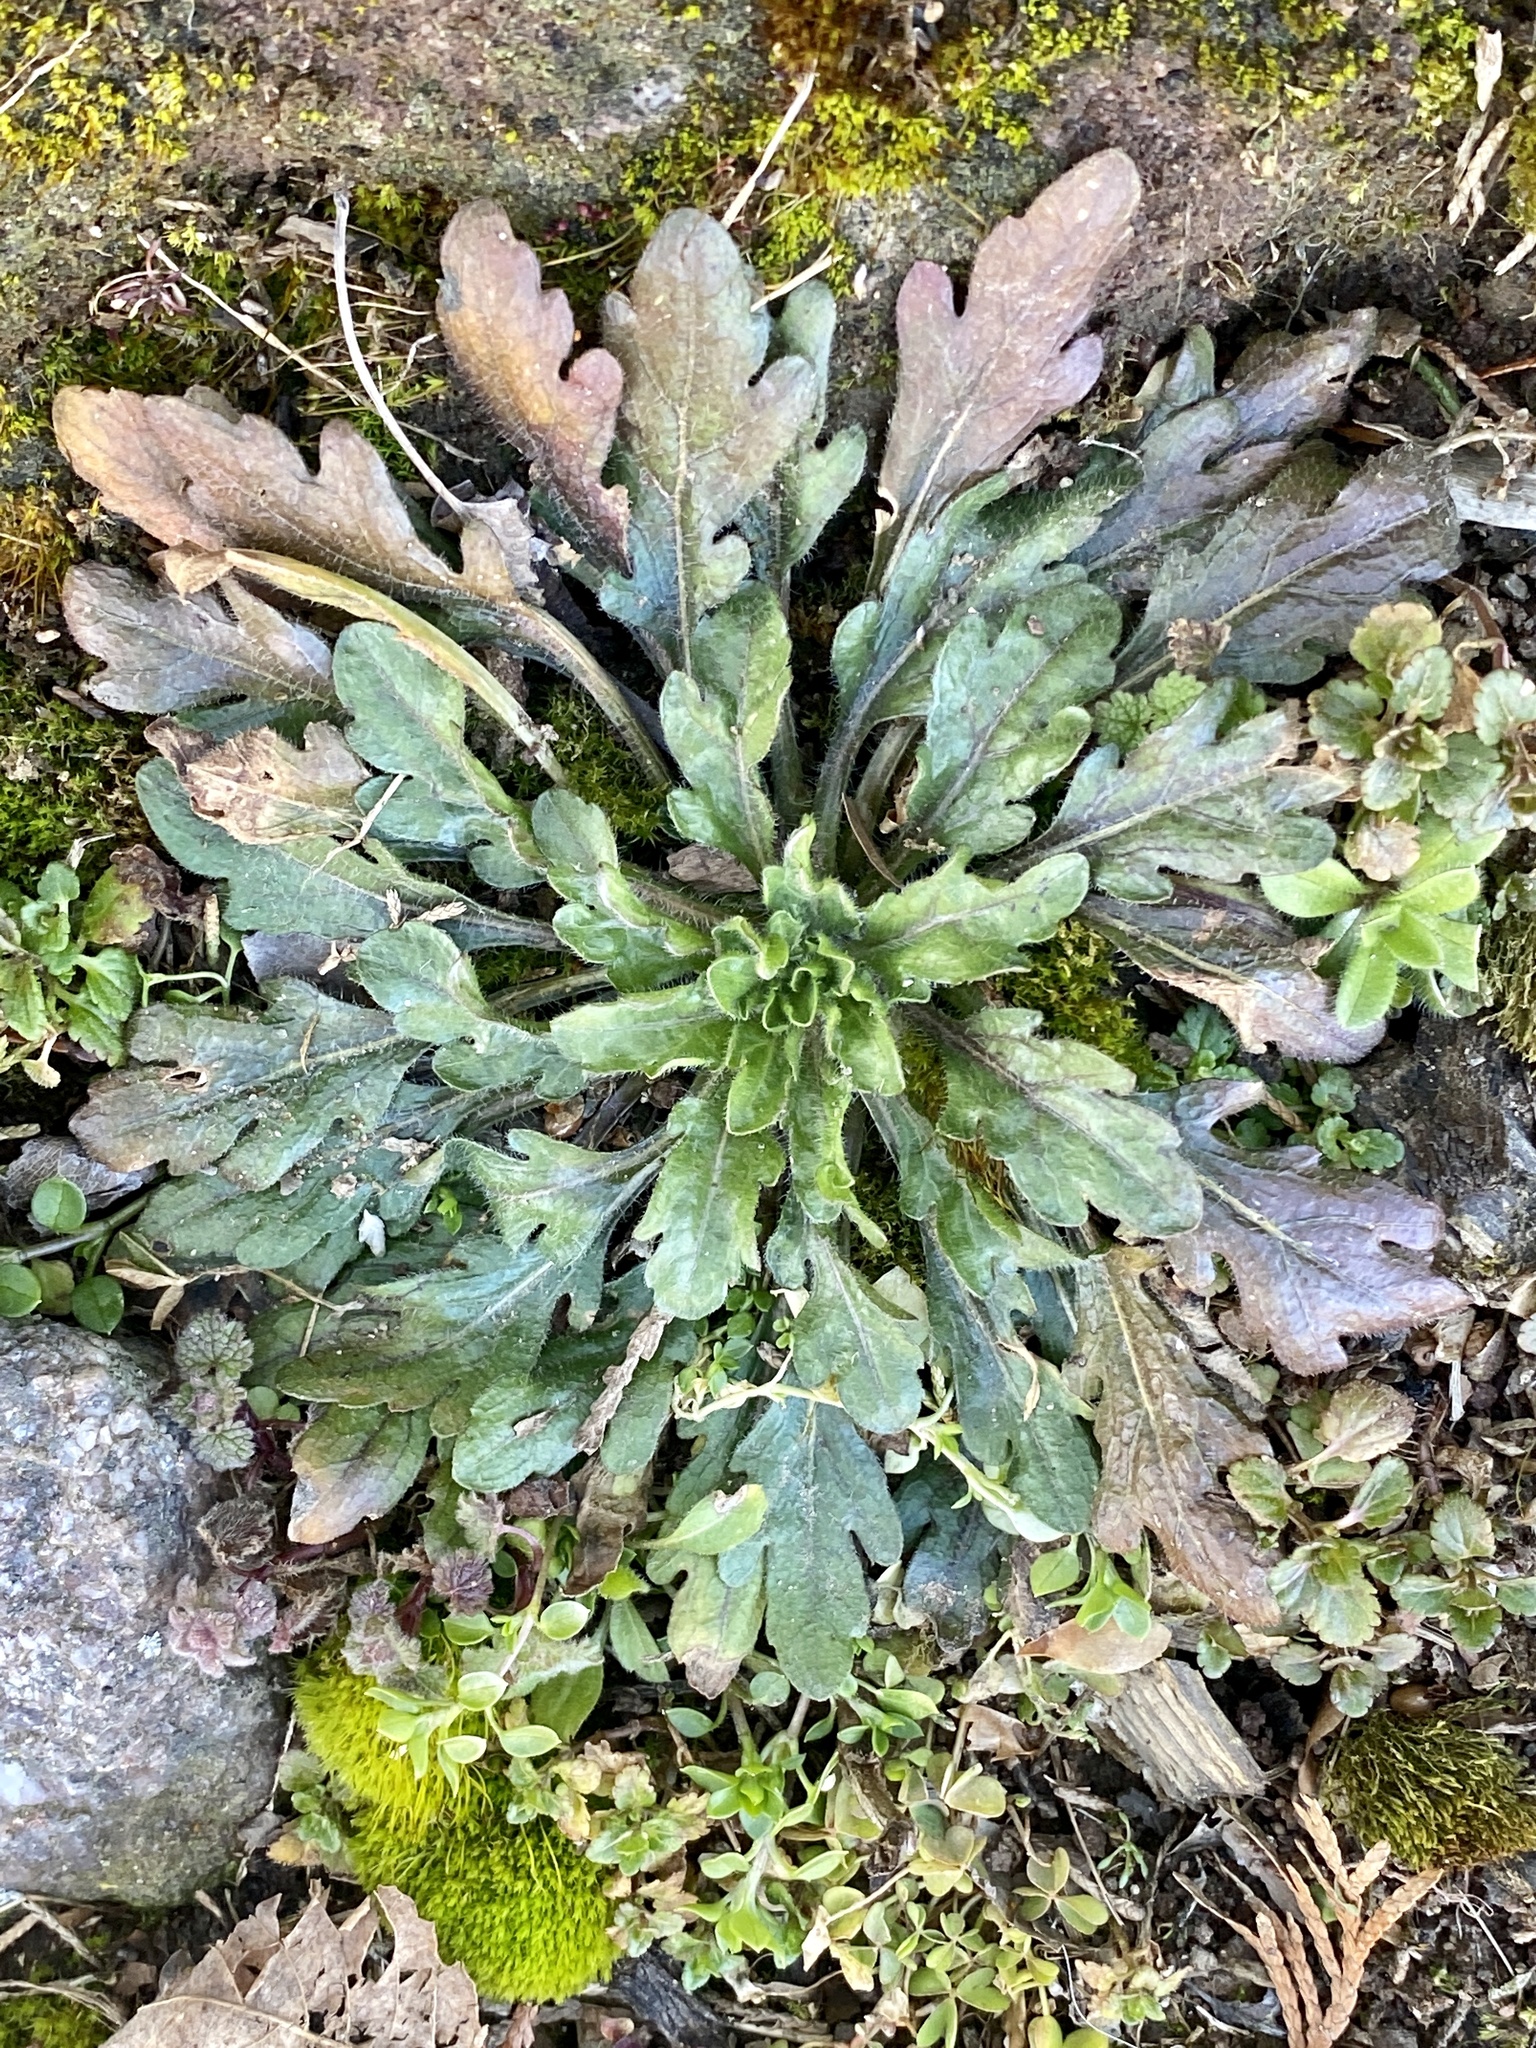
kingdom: Plantae
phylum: Tracheophyta
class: Magnoliopsida
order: Asterales
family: Asteraceae
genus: Erigeron
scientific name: Erigeron canadensis
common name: Canadian fleabane
